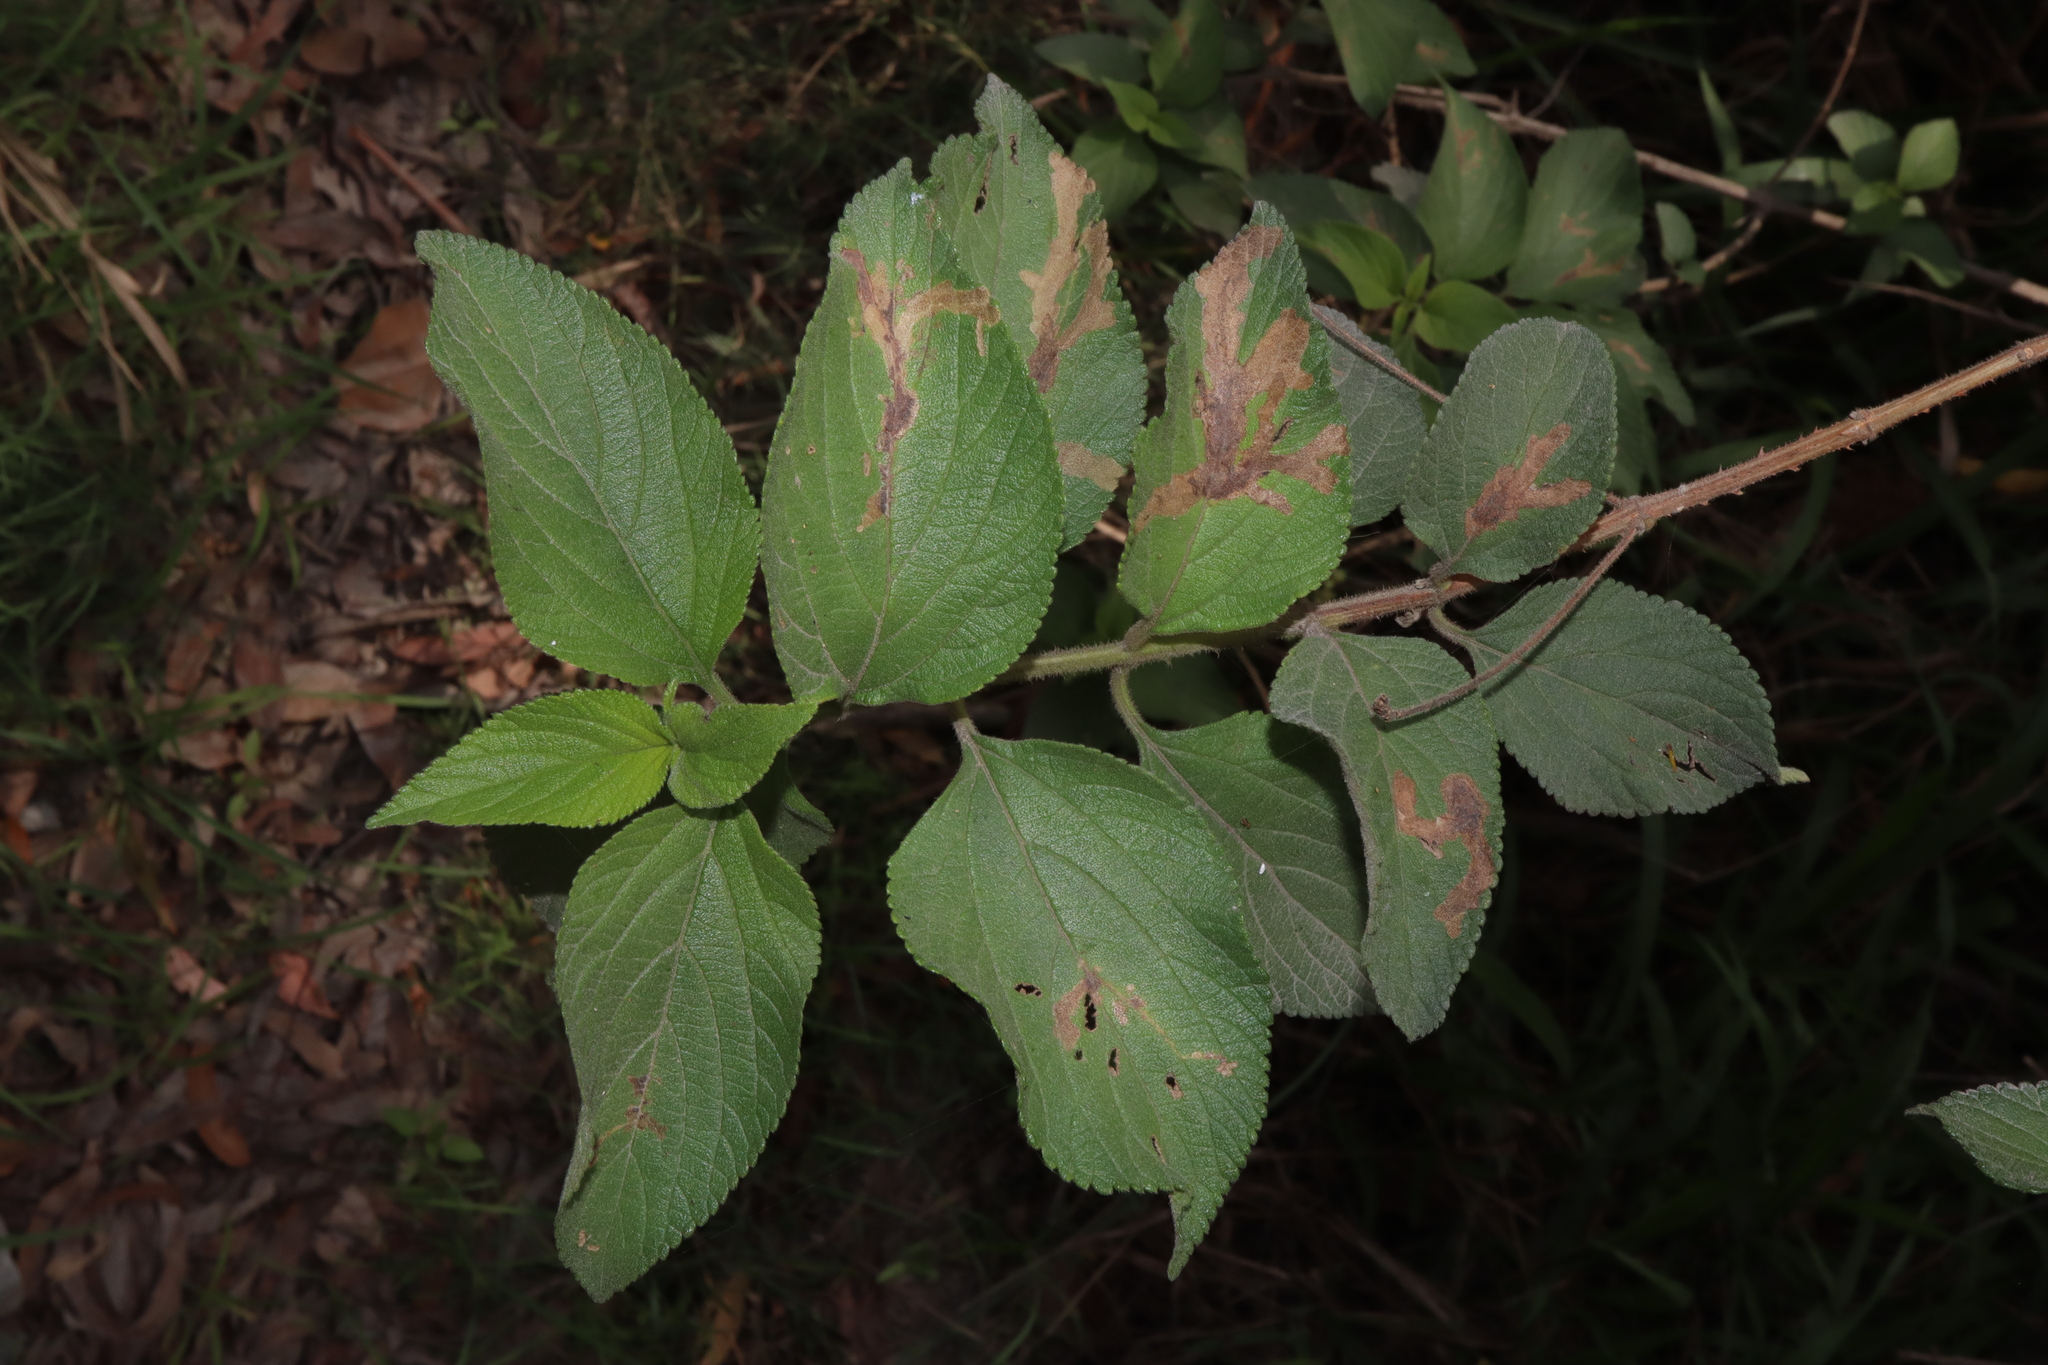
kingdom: Plantae
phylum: Tracheophyta
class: Magnoliopsida
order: Lamiales
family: Verbenaceae
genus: Lantana
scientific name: Lantana camara
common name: Lantana
